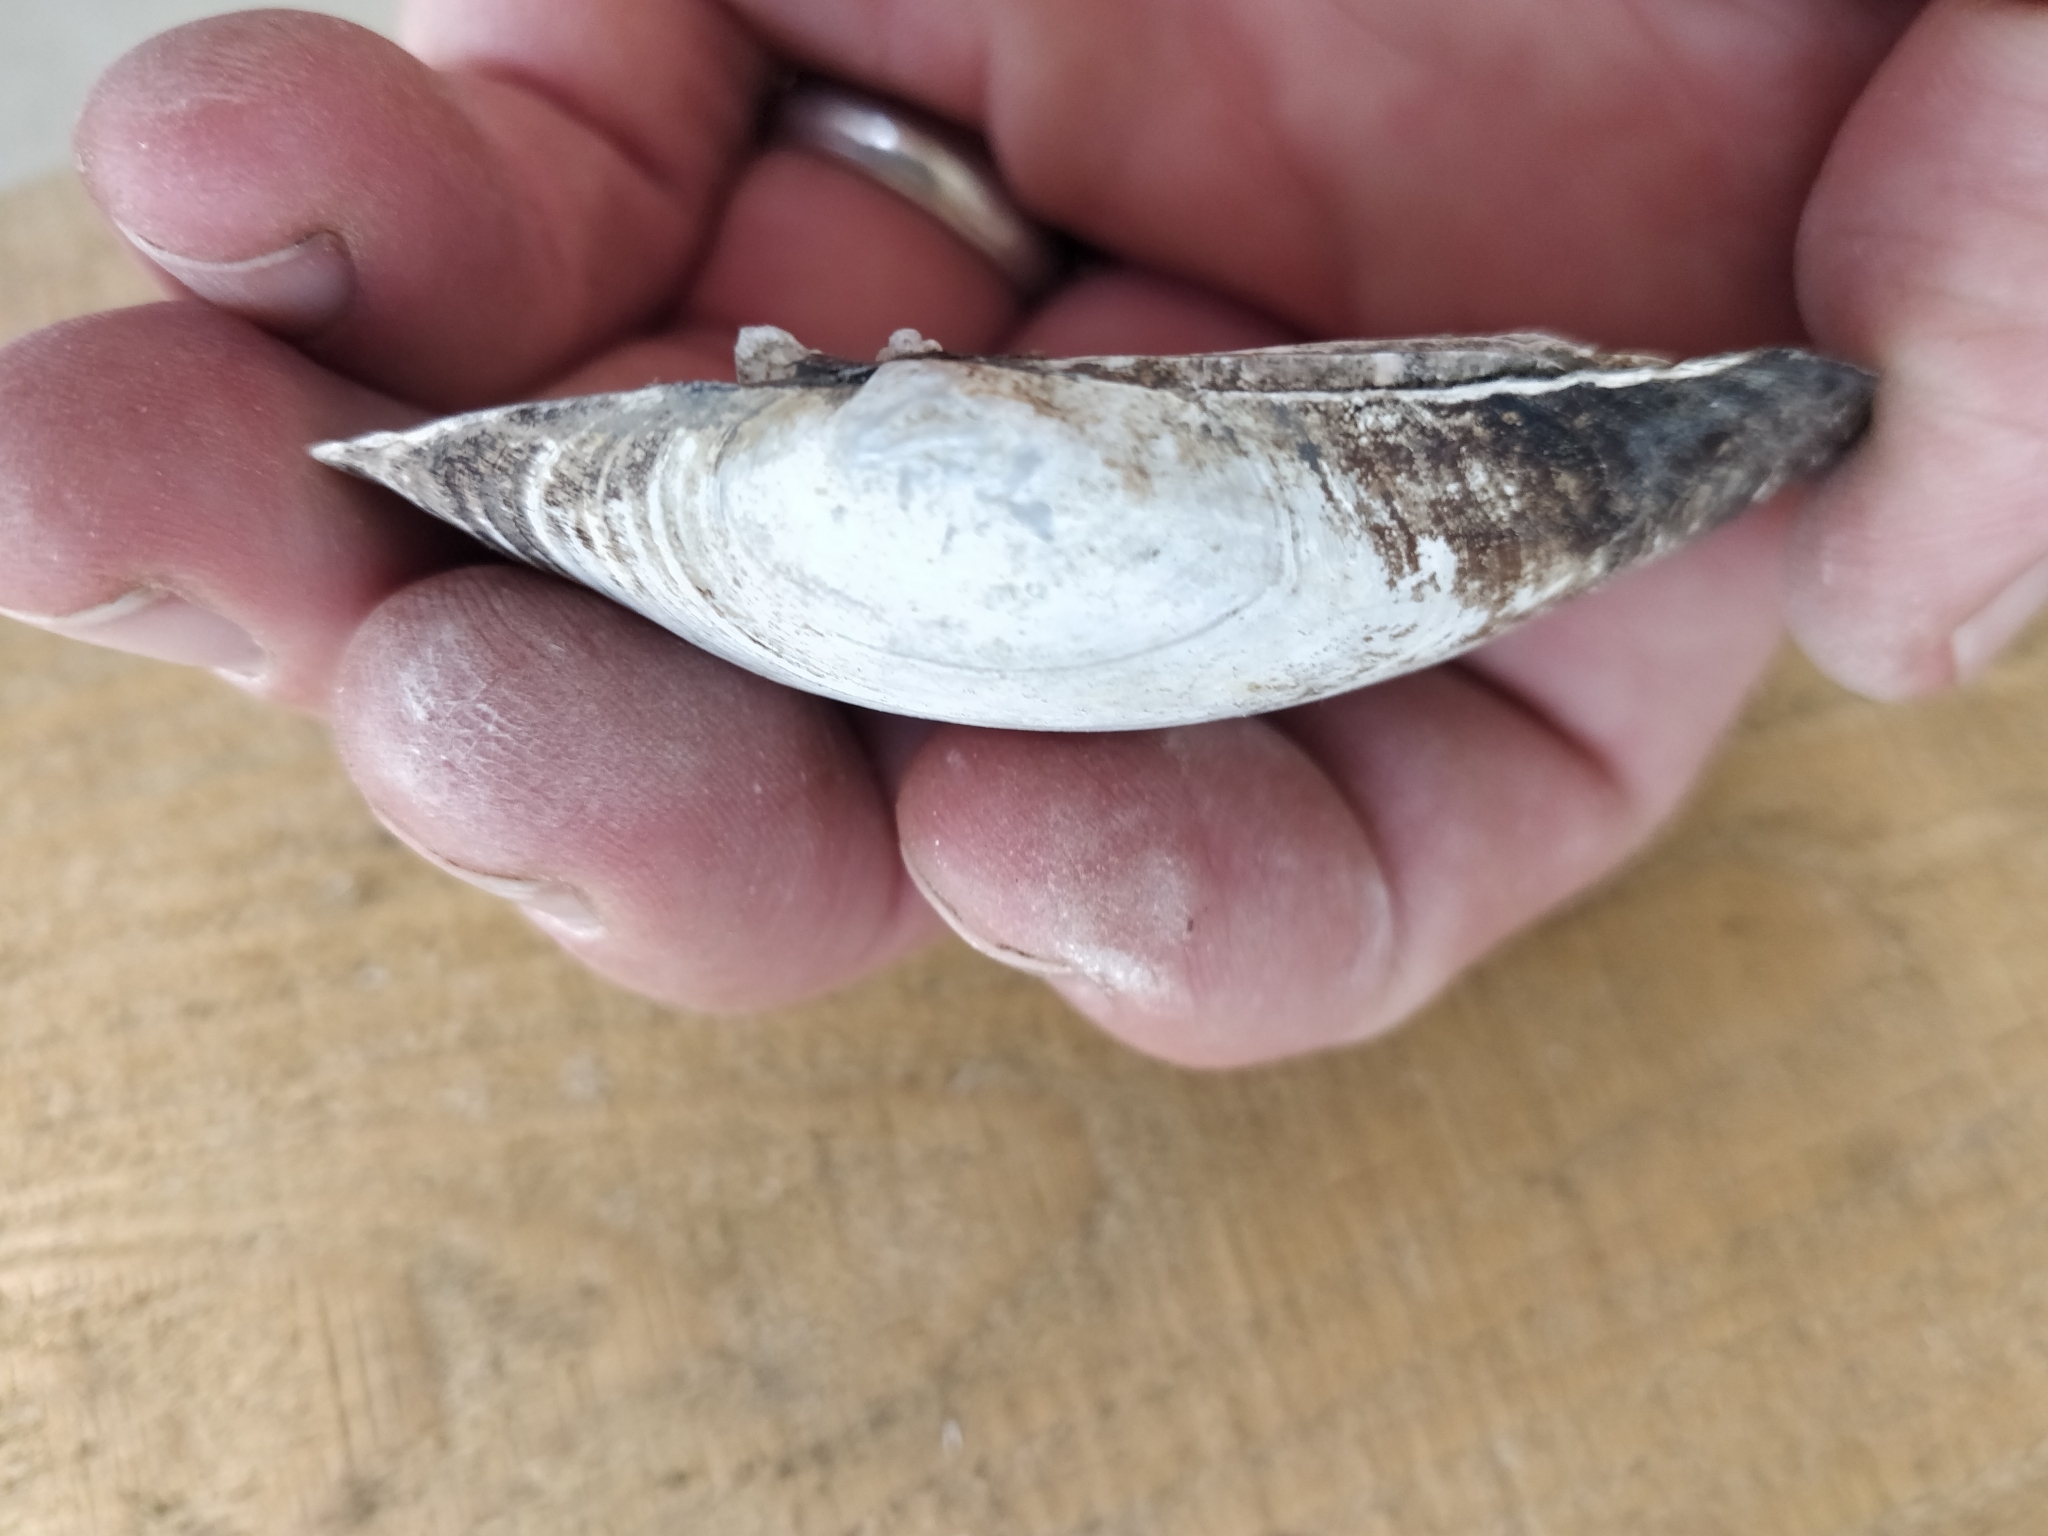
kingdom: Animalia
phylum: Mollusca
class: Bivalvia
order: Unionida
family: Unionidae
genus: Lampsilis
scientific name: Lampsilis cardium
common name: Plain pocketbook
